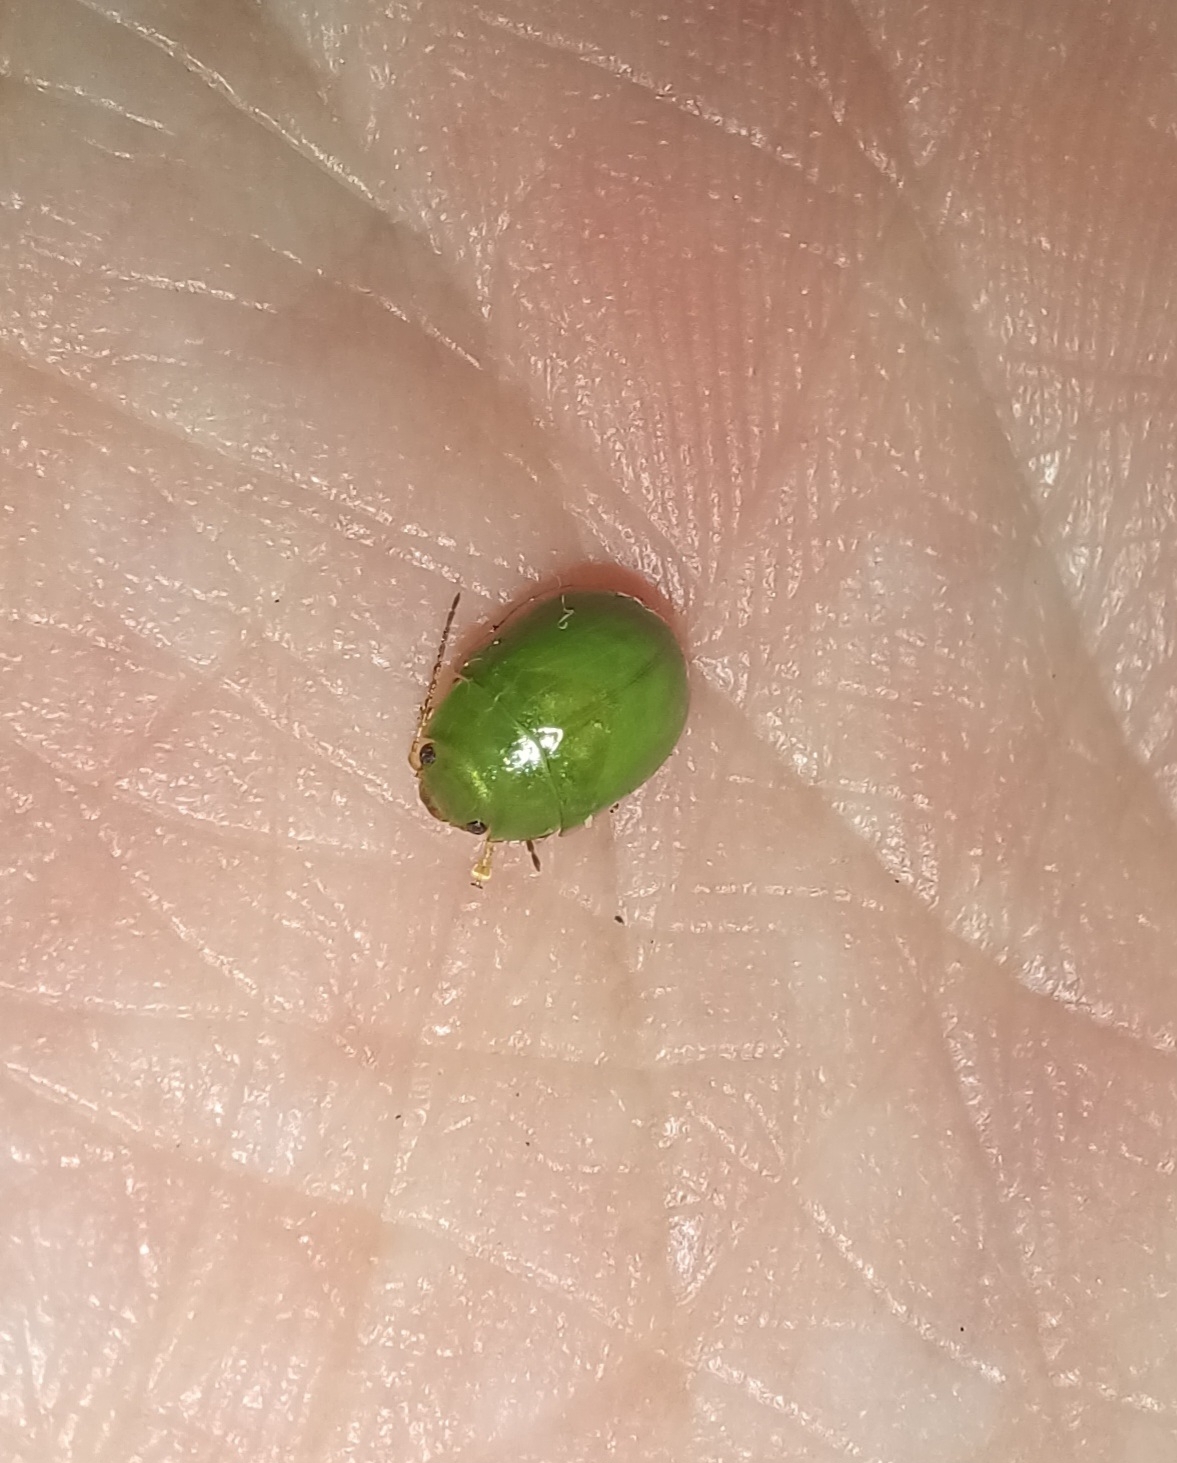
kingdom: Animalia
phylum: Arthropoda
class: Insecta
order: Coleoptera
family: Chrysomelidae
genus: Paropsides
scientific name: Paropsides
